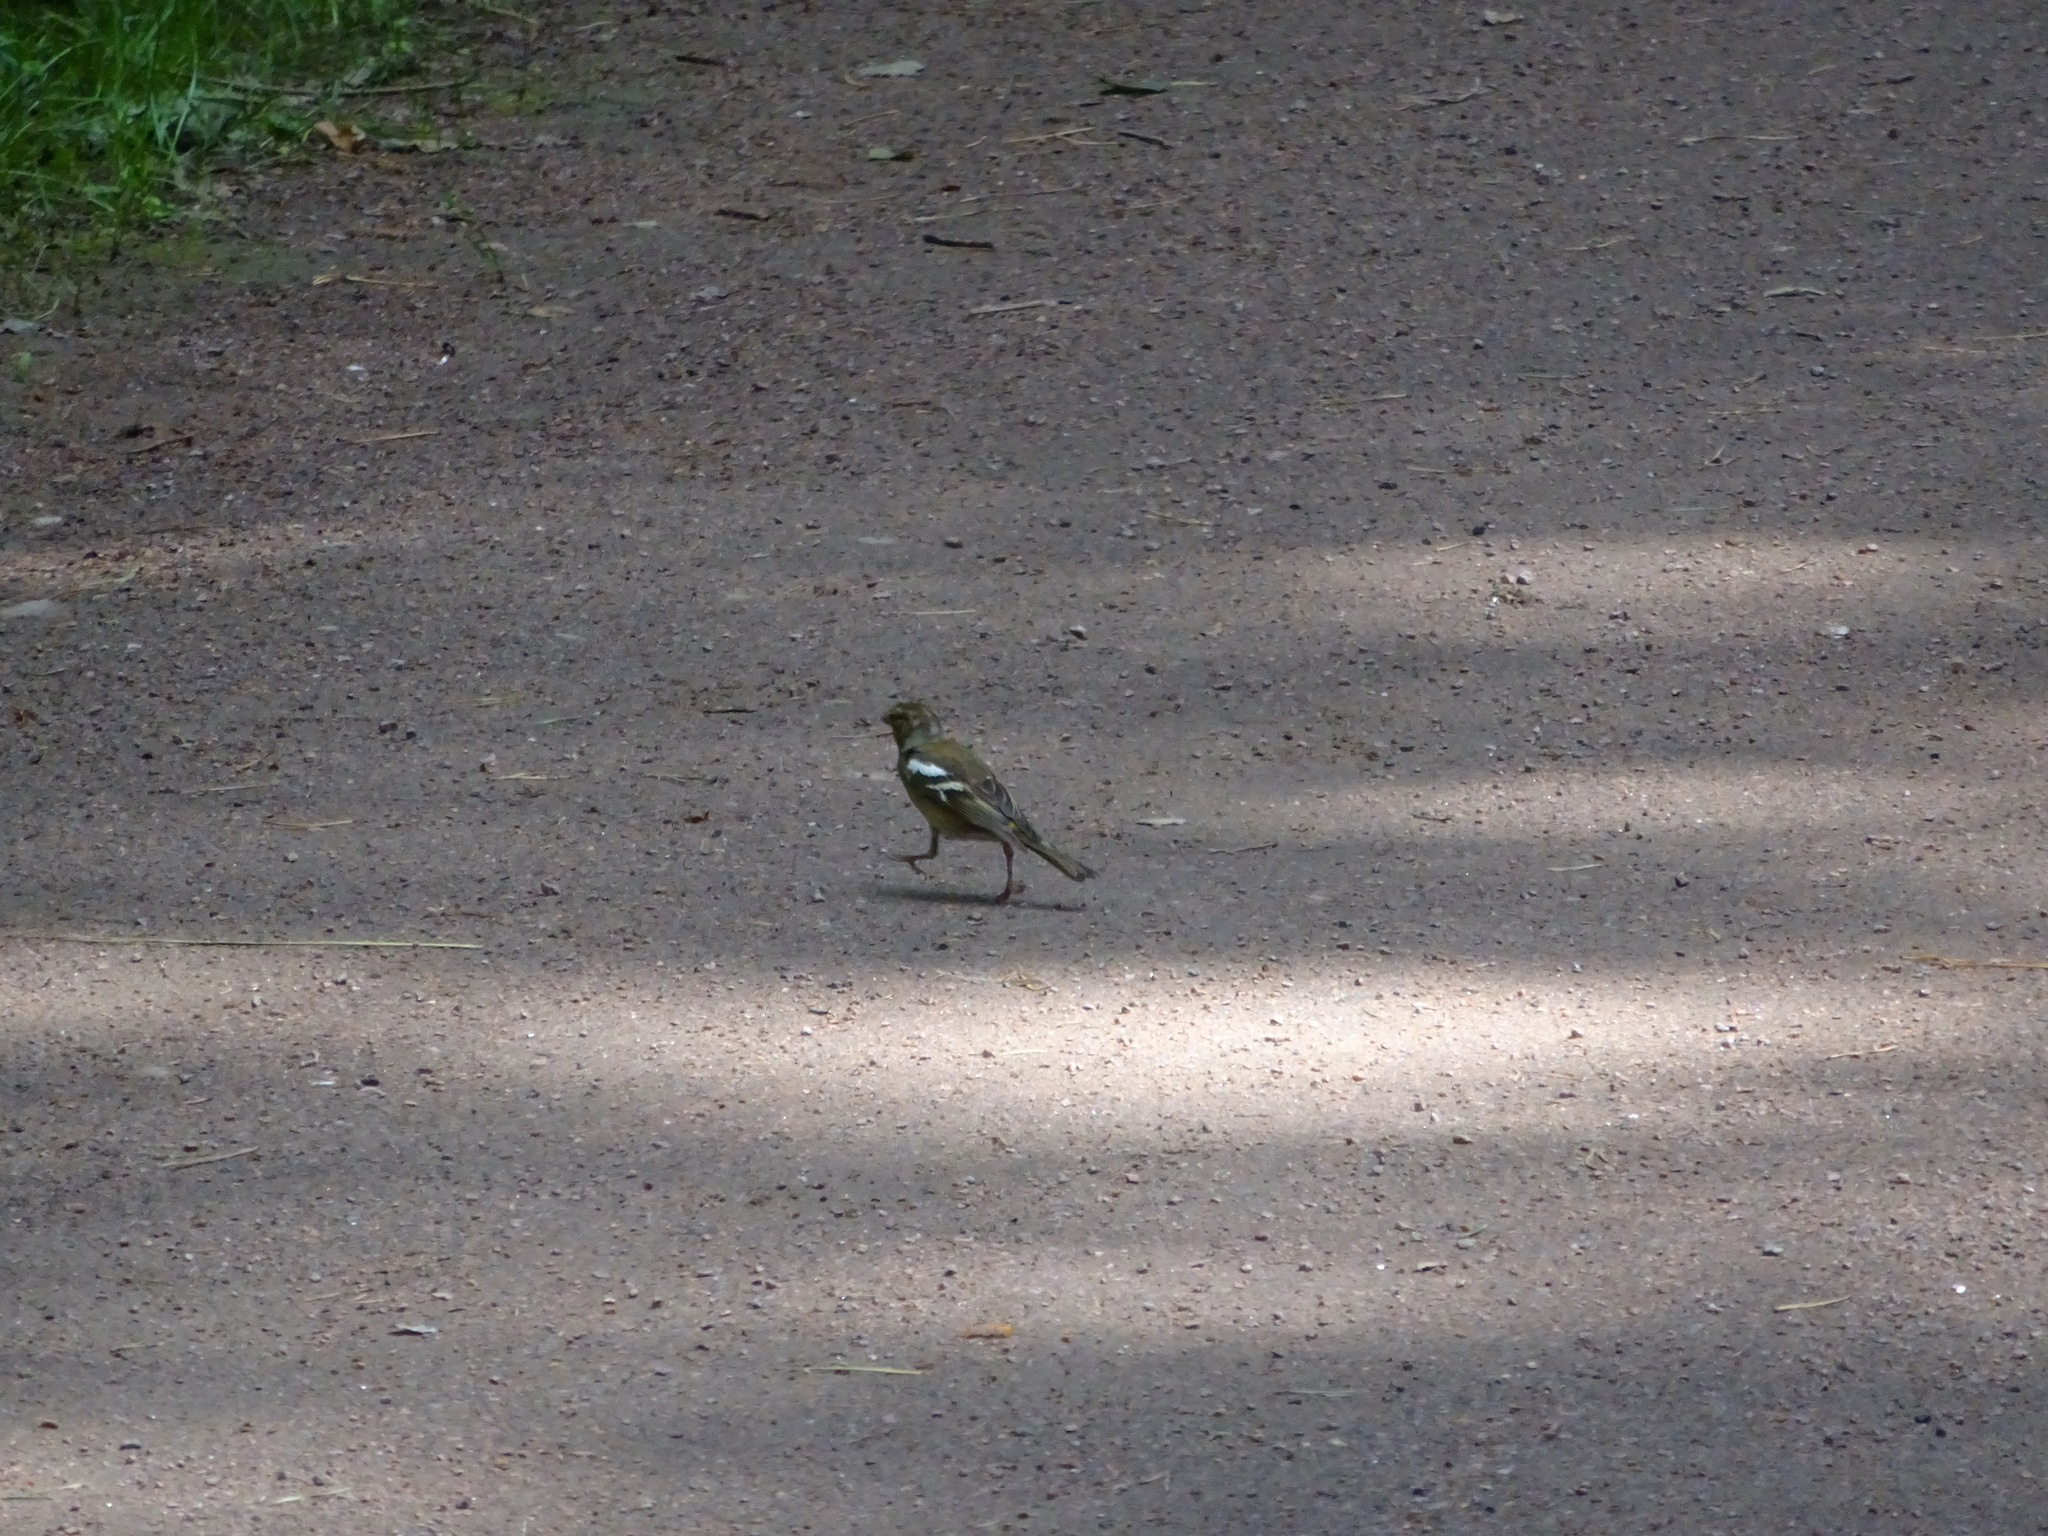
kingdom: Animalia
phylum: Chordata
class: Aves
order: Passeriformes
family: Fringillidae
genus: Fringilla
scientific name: Fringilla coelebs
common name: Common chaffinch
